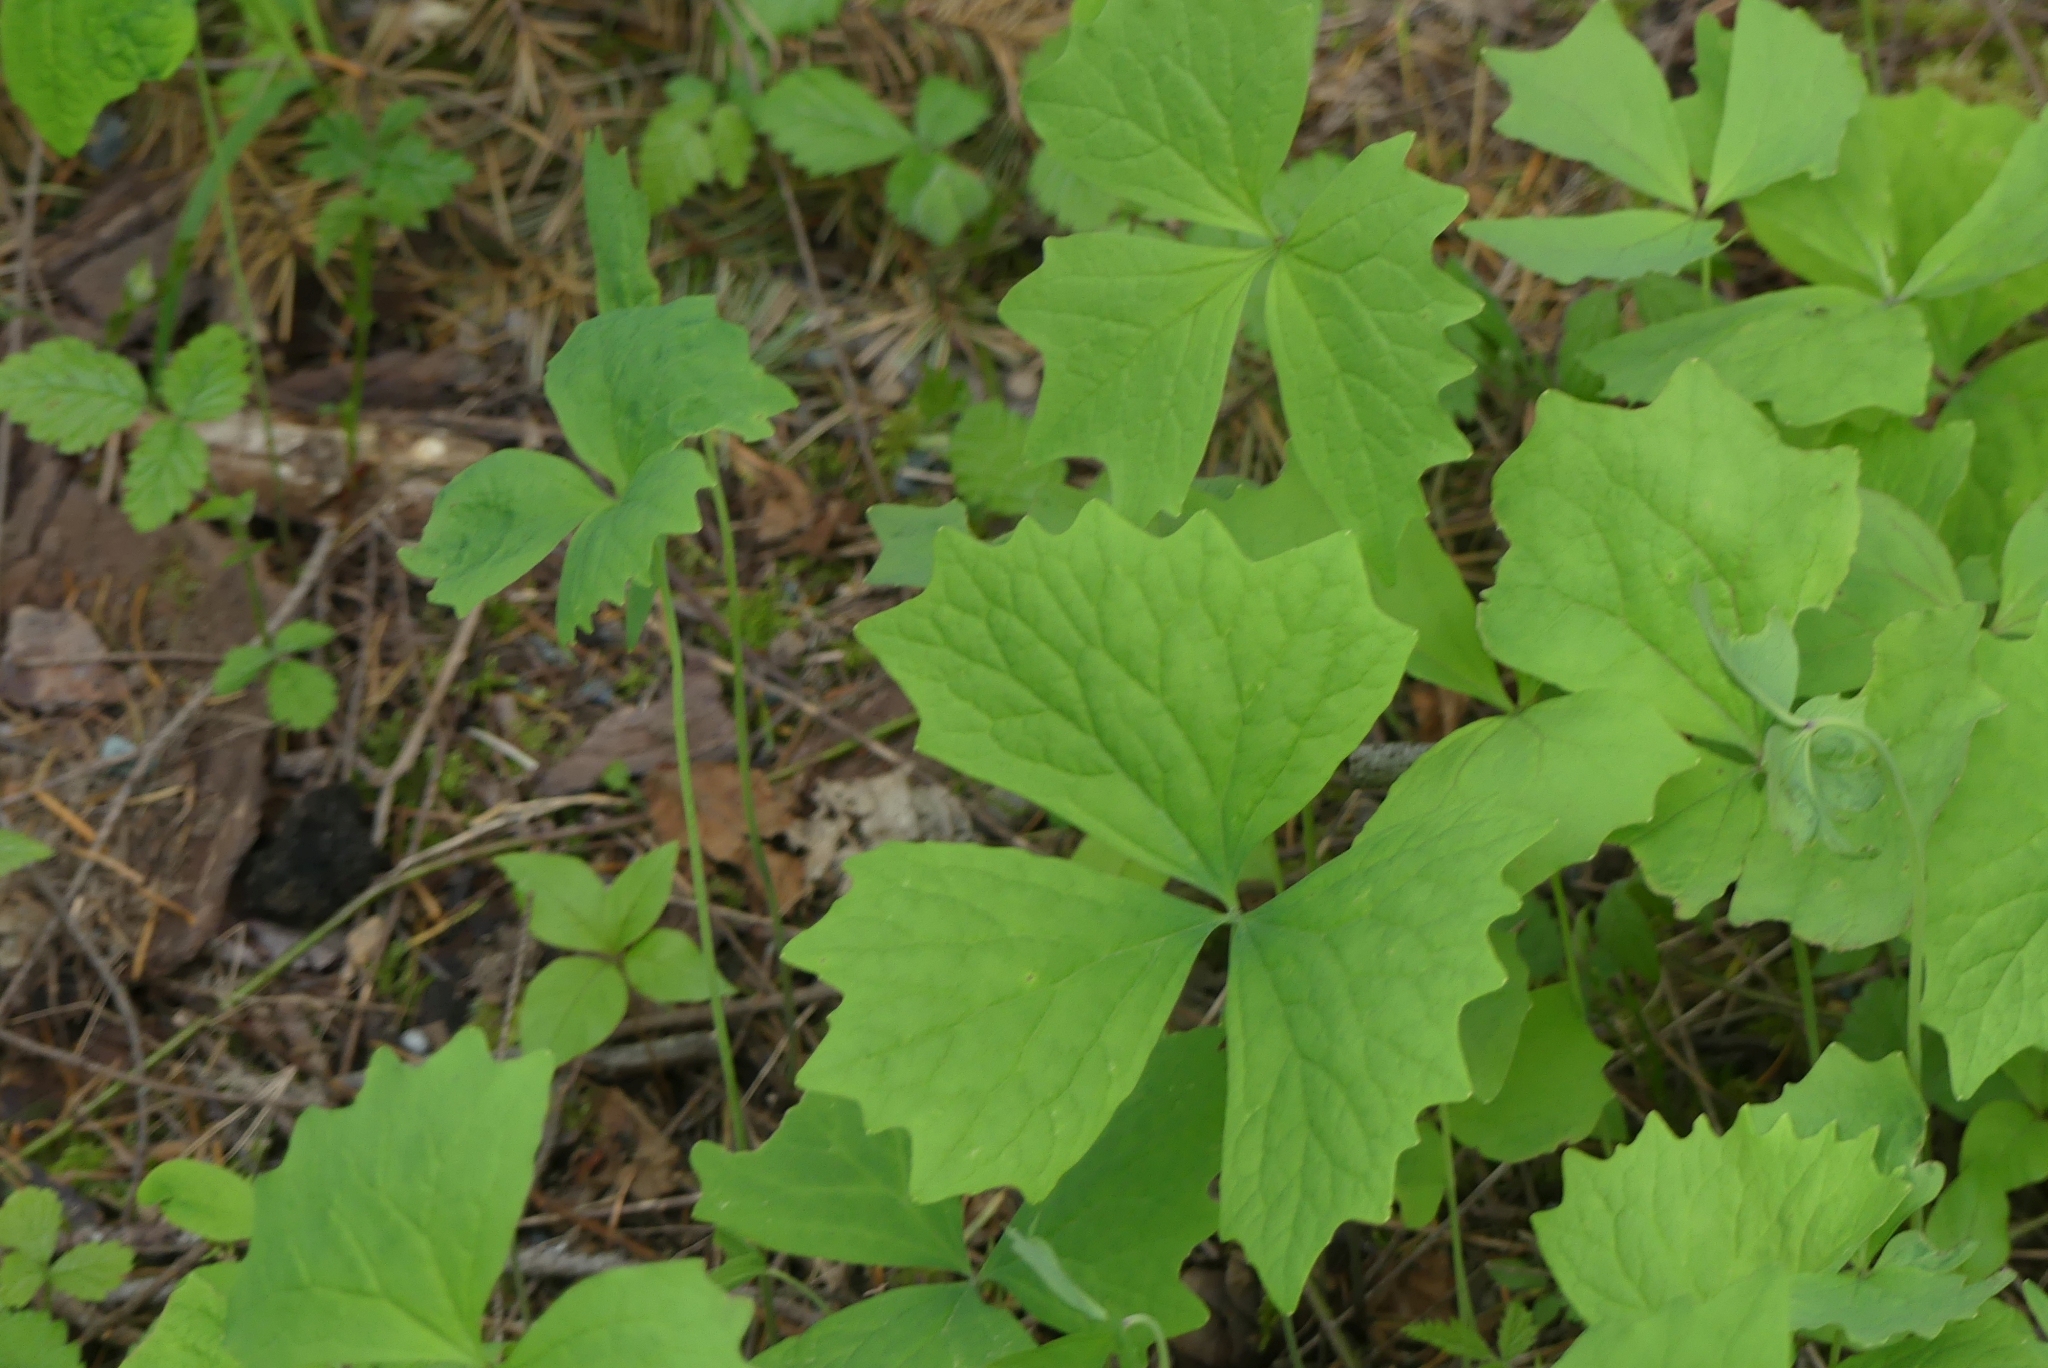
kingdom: Plantae
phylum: Tracheophyta
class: Magnoliopsida
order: Ranunculales
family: Berberidaceae
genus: Achlys
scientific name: Achlys triphylla
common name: Vanilla-leaf
